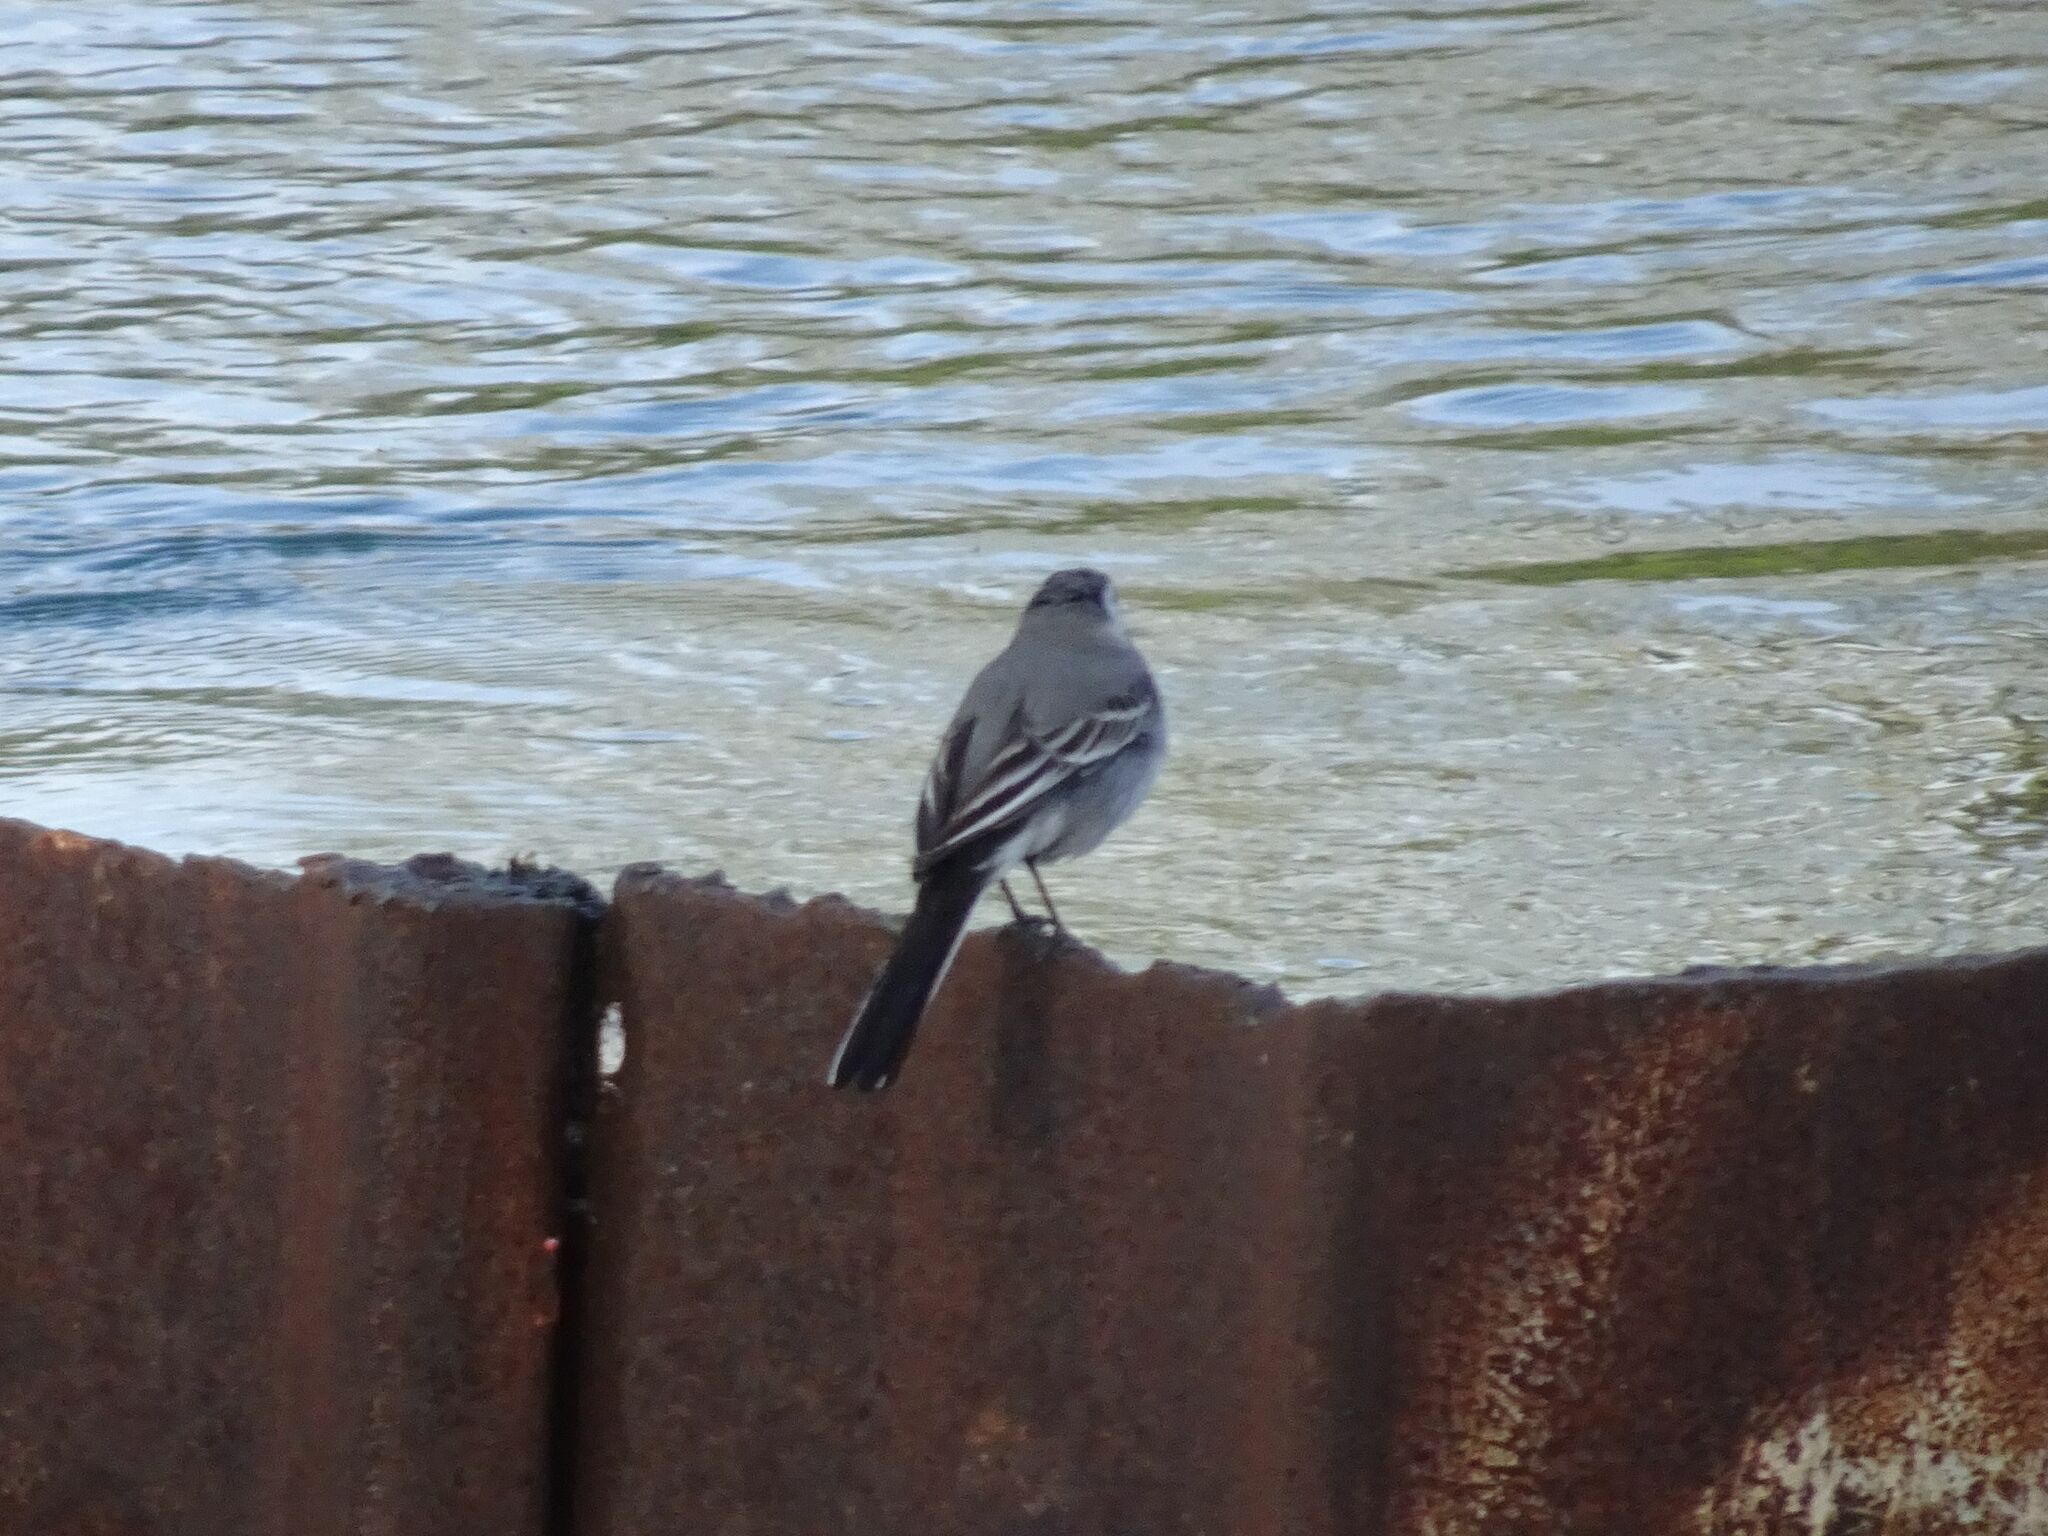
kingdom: Animalia
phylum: Chordata
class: Aves
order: Passeriformes
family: Motacillidae
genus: Motacilla
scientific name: Motacilla alba
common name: White wagtail
